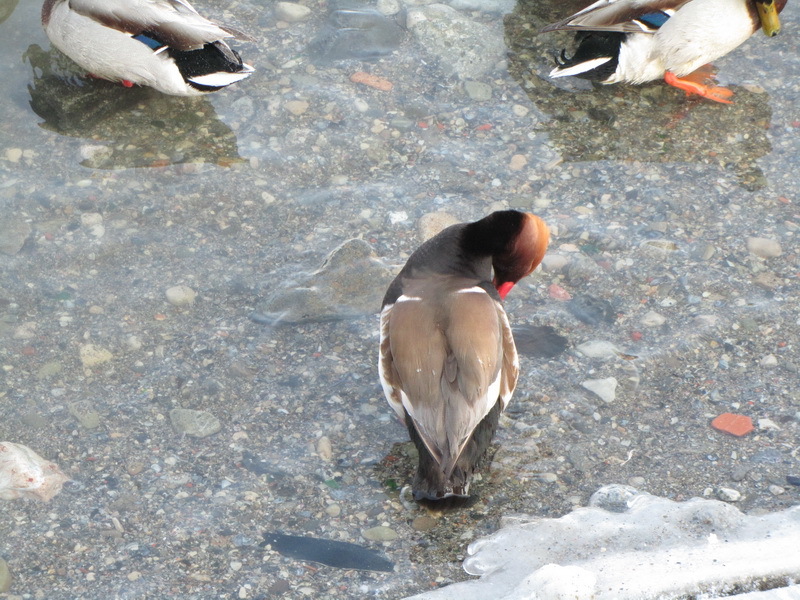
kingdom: Animalia
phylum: Chordata
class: Aves
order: Anseriformes
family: Anatidae
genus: Netta
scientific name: Netta rufina
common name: Red-crested pochard
